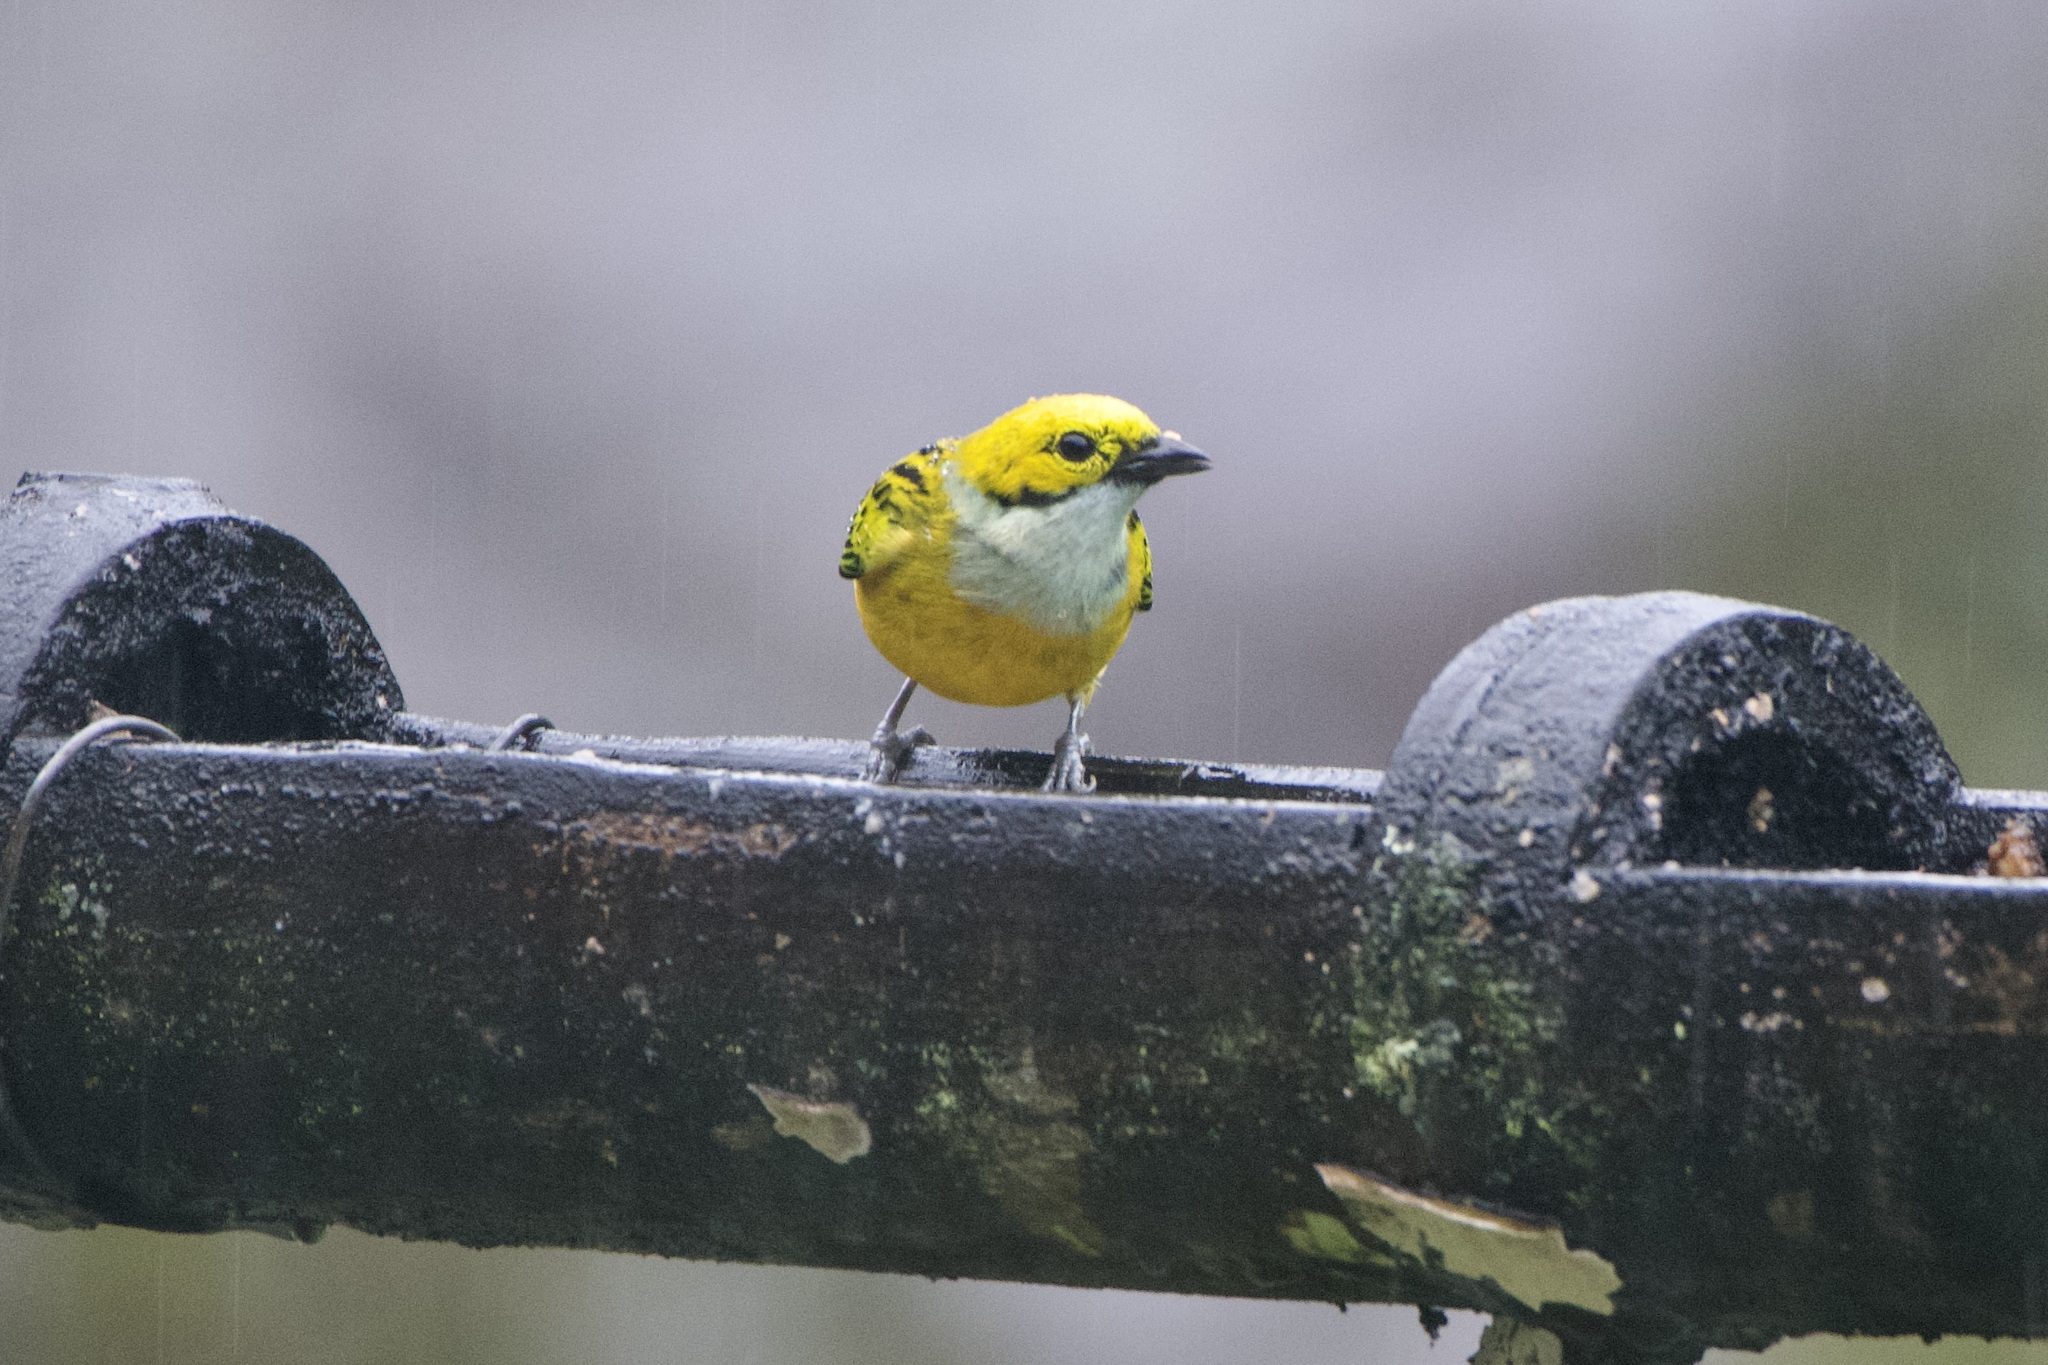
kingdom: Animalia
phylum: Chordata
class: Aves
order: Passeriformes
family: Thraupidae
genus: Tangara
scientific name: Tangara icterocephala
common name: Silver-throated tanager
